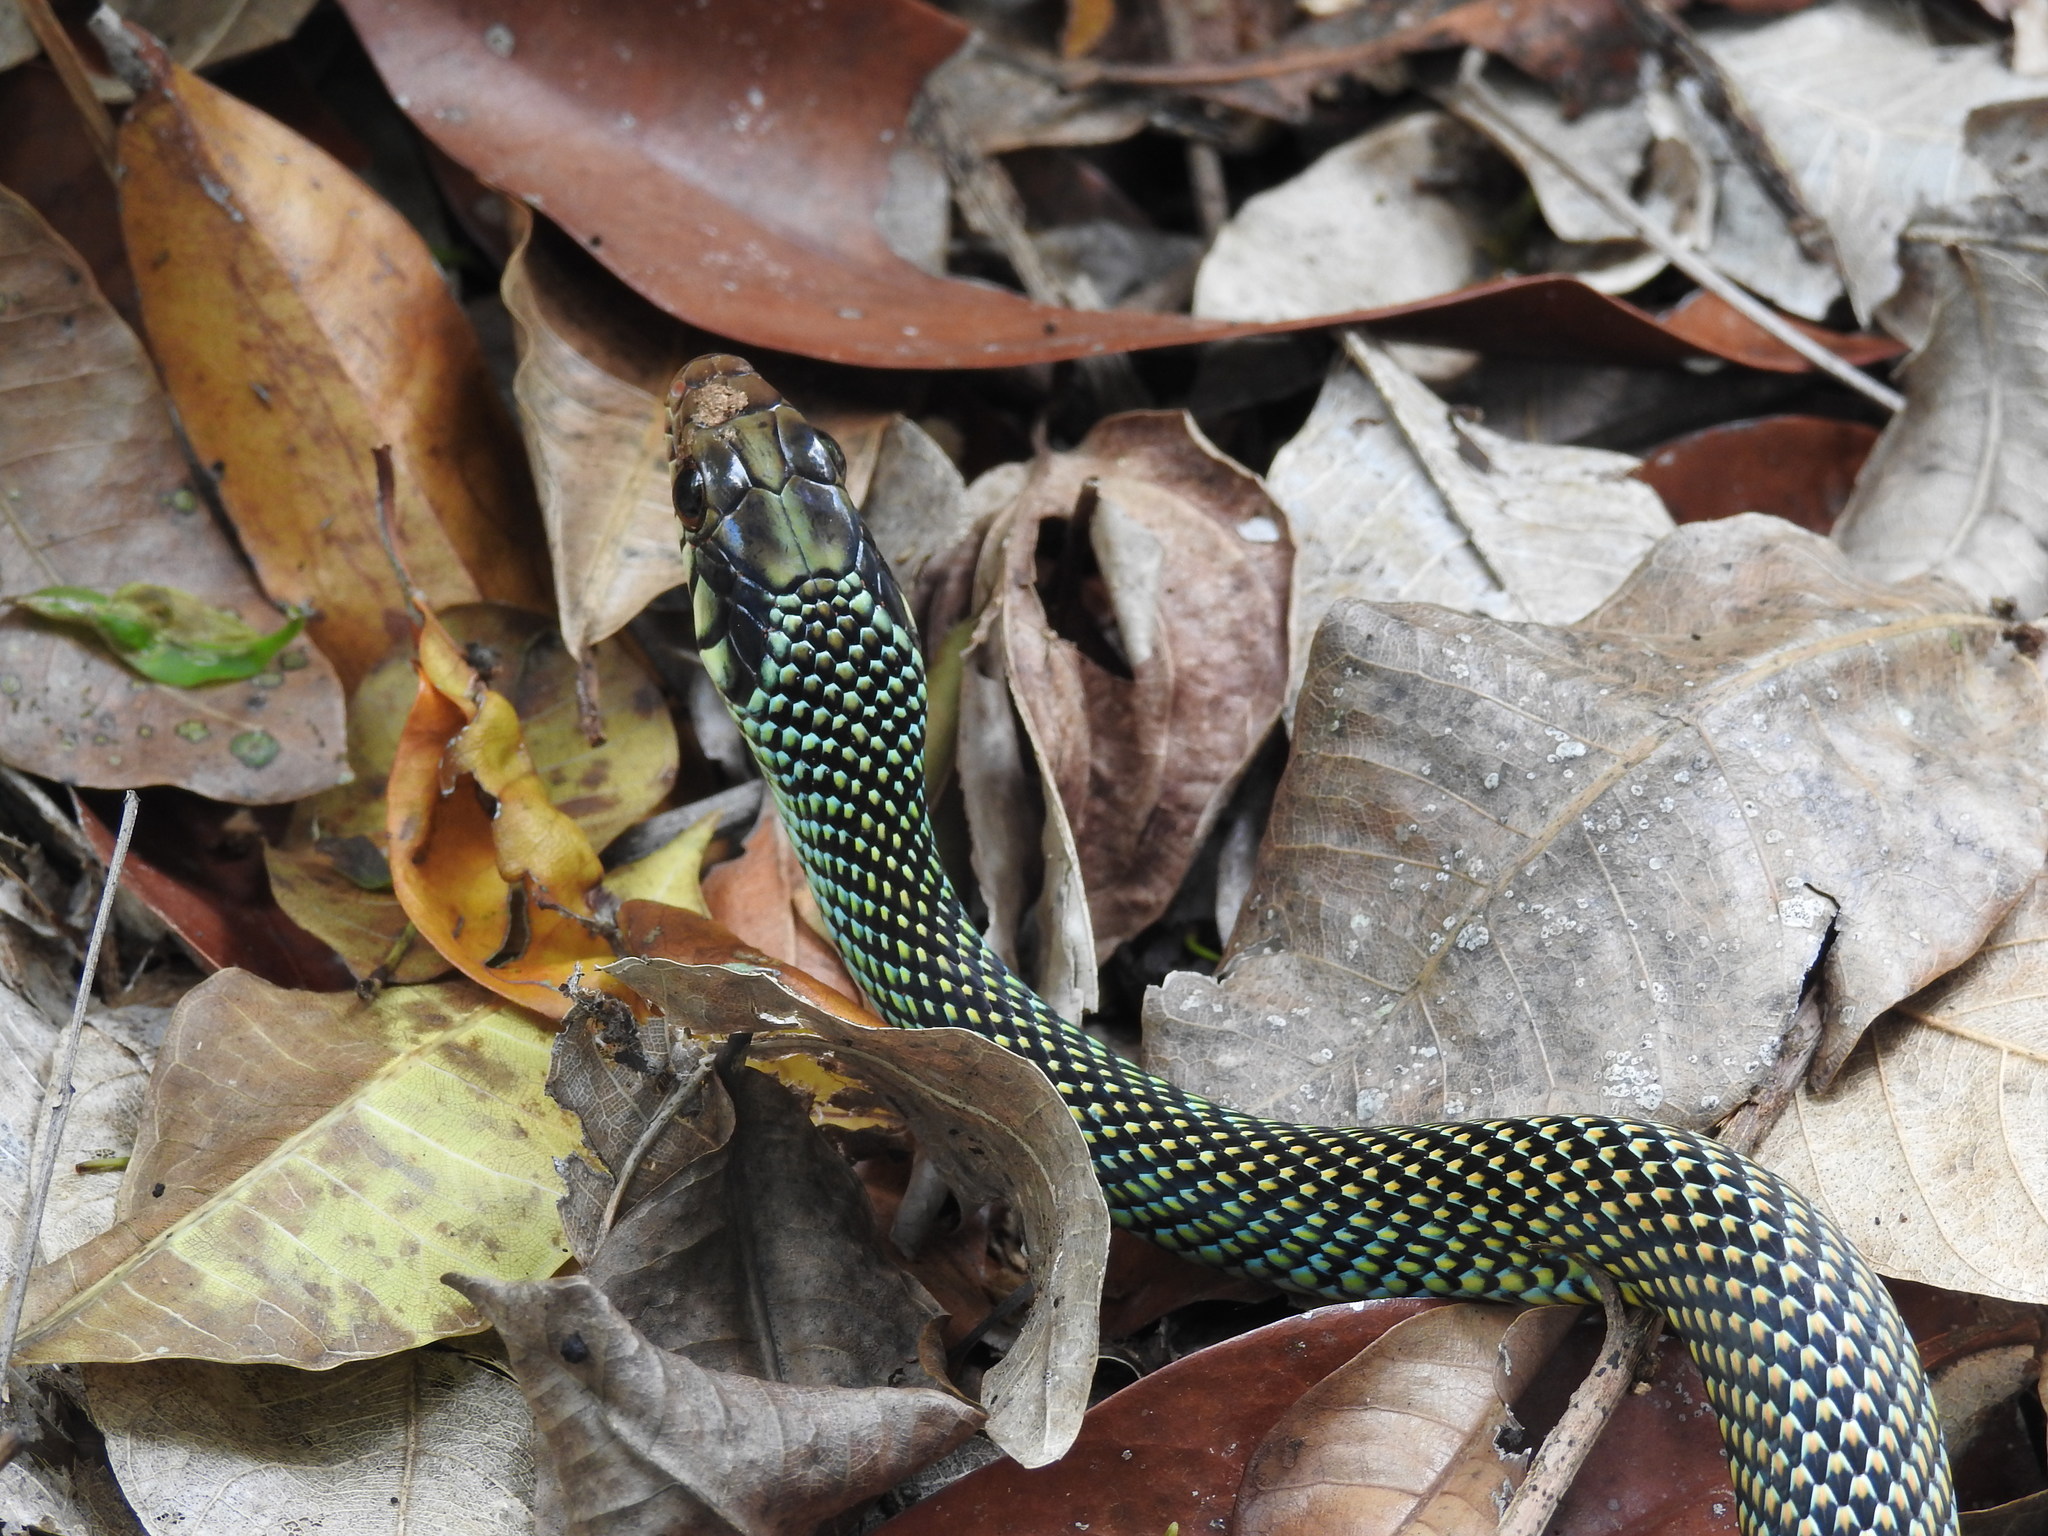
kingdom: Animalia
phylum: Chordata
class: Squamata
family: Colubridae
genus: Drymobius
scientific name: Drymobius margaritiferus
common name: Central american speckled racer
